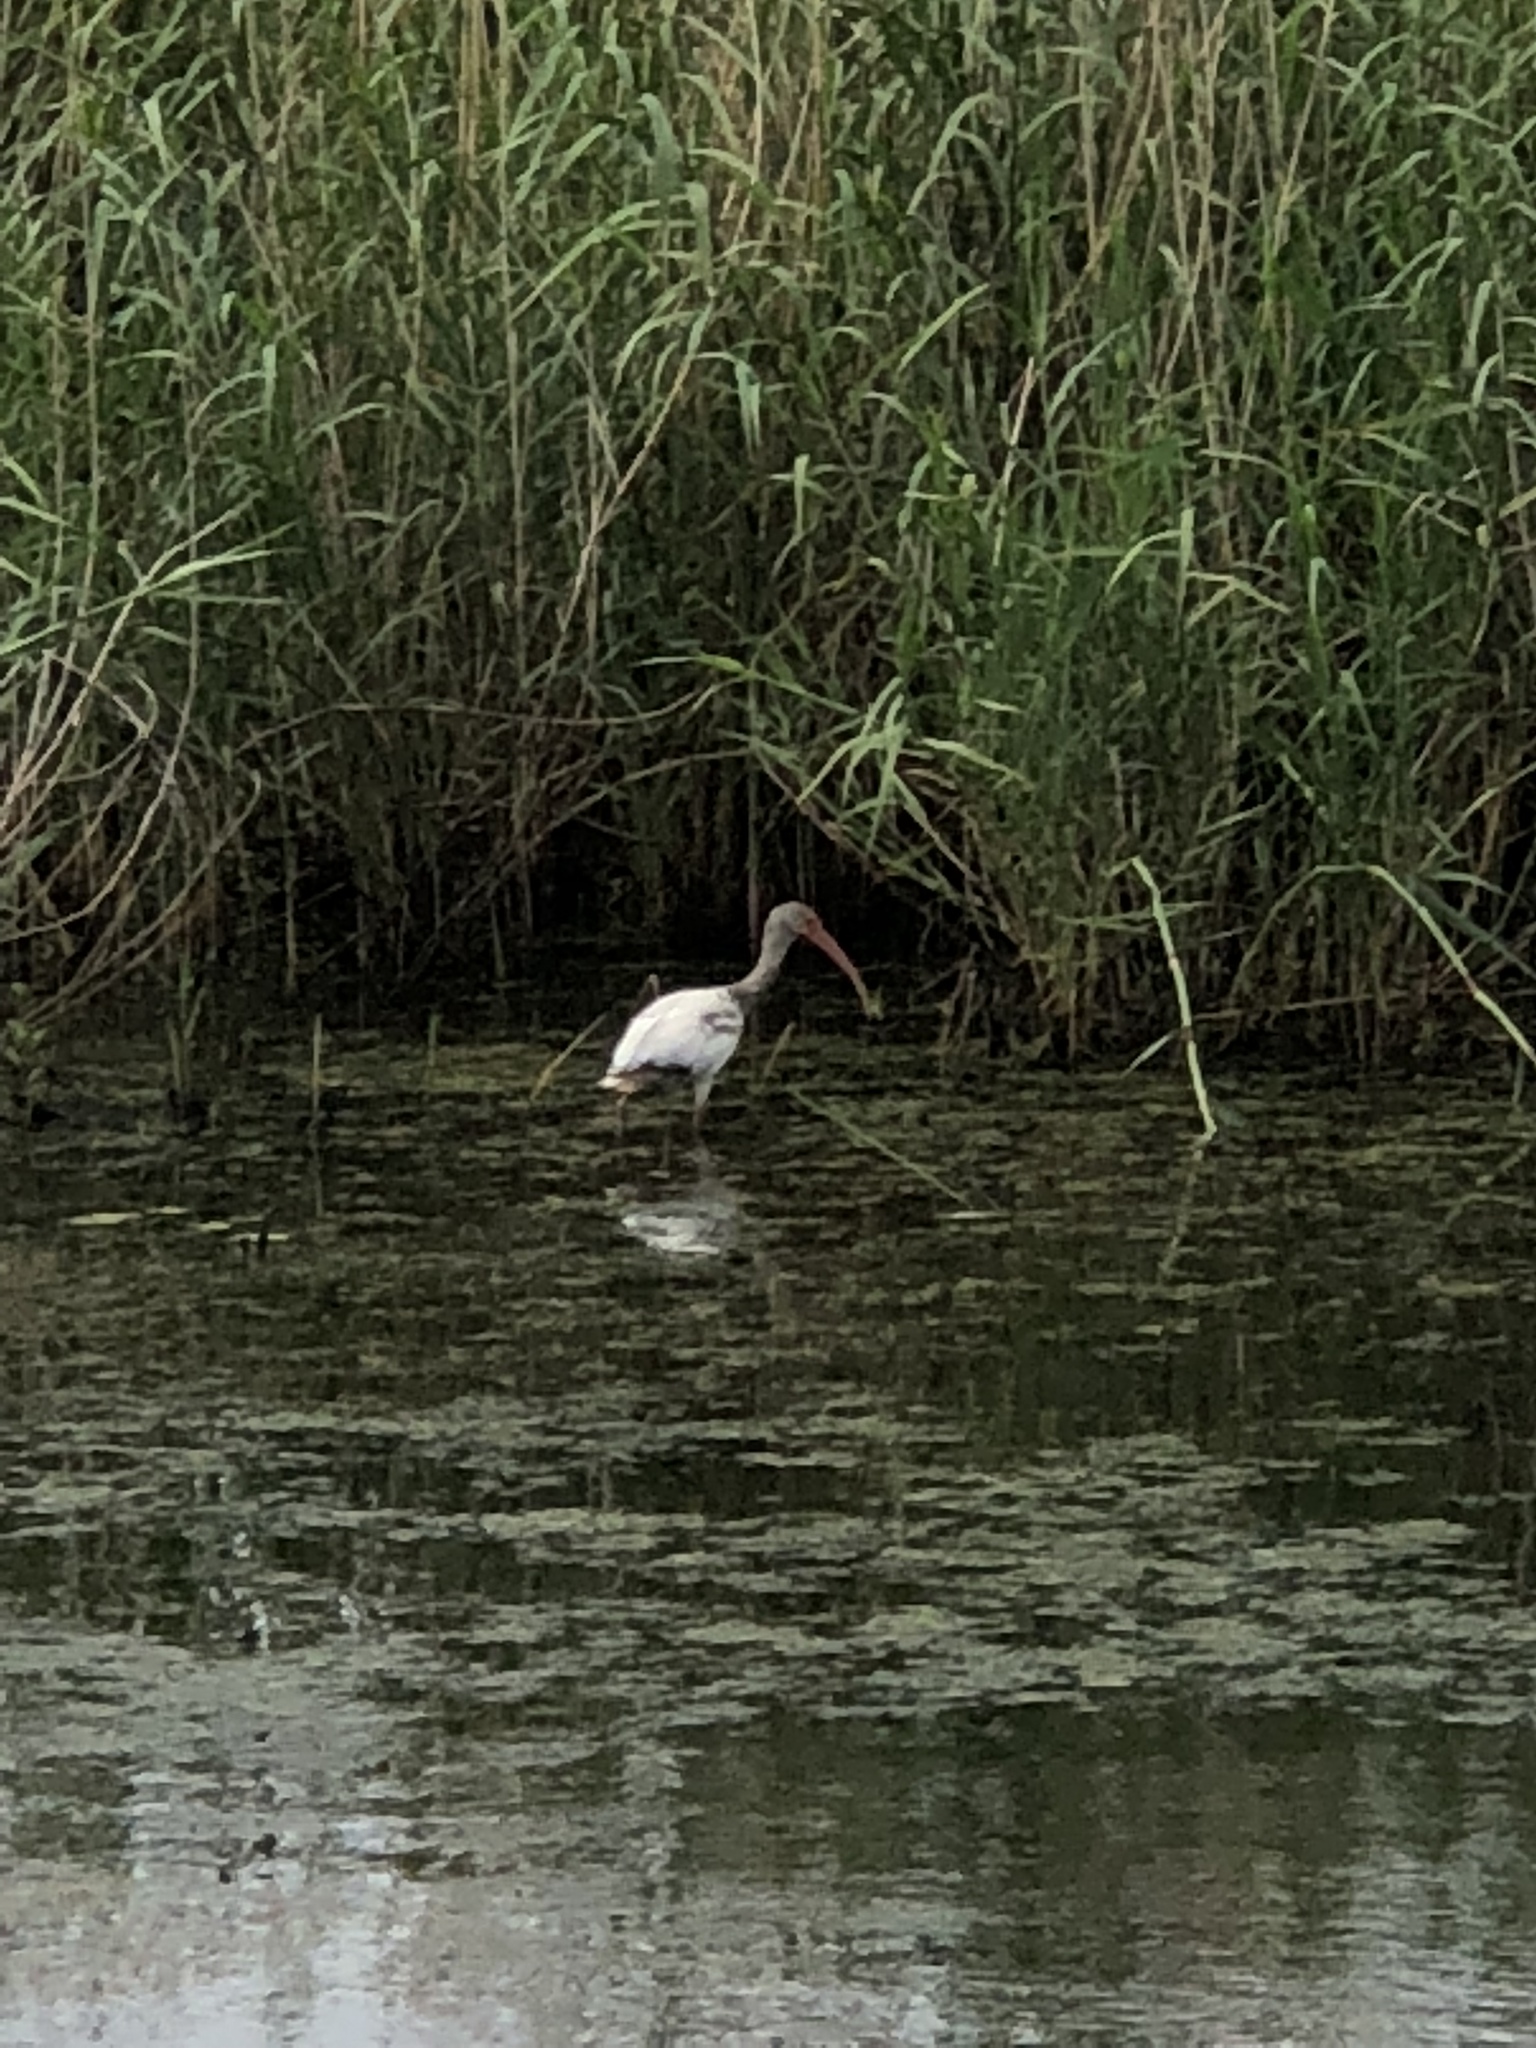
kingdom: Animalia
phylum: Chordata
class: Aves
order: Pelecaniformes
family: Threskiornithidae
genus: Eudocimus
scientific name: Eudocimus albus
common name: White ibis
